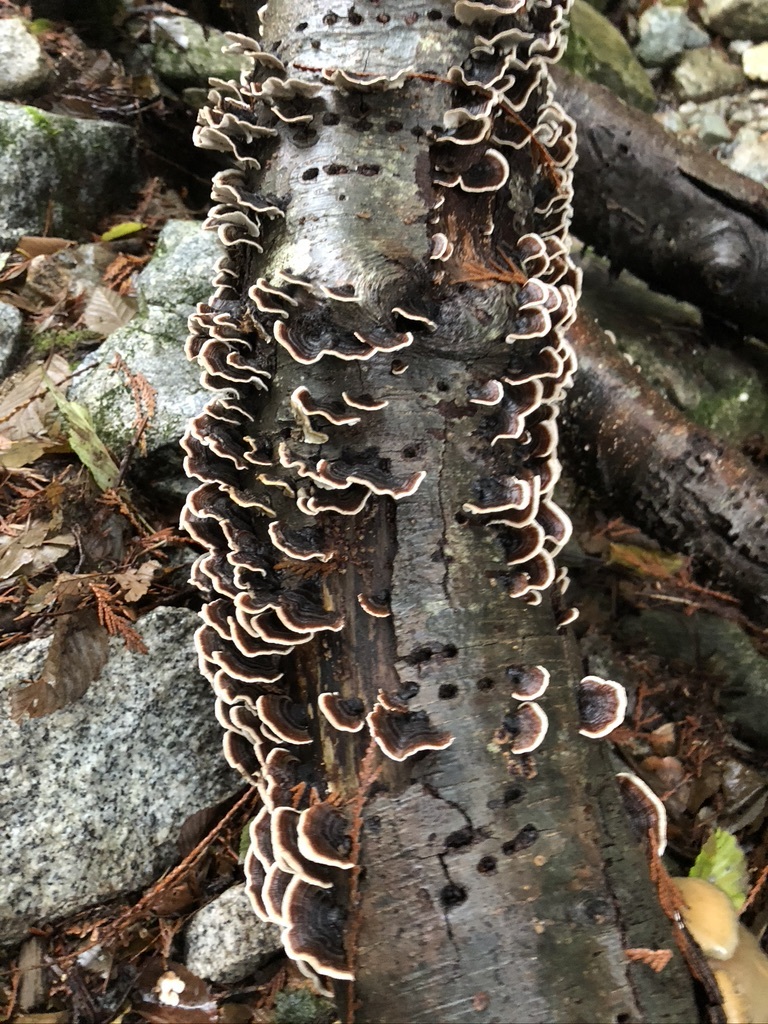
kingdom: Fungi
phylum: Basidiomycota
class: Agaricomycetes
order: Polyporales
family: Polyporaceae
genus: Trametes
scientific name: Trametes versicolor
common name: Turkeytail
